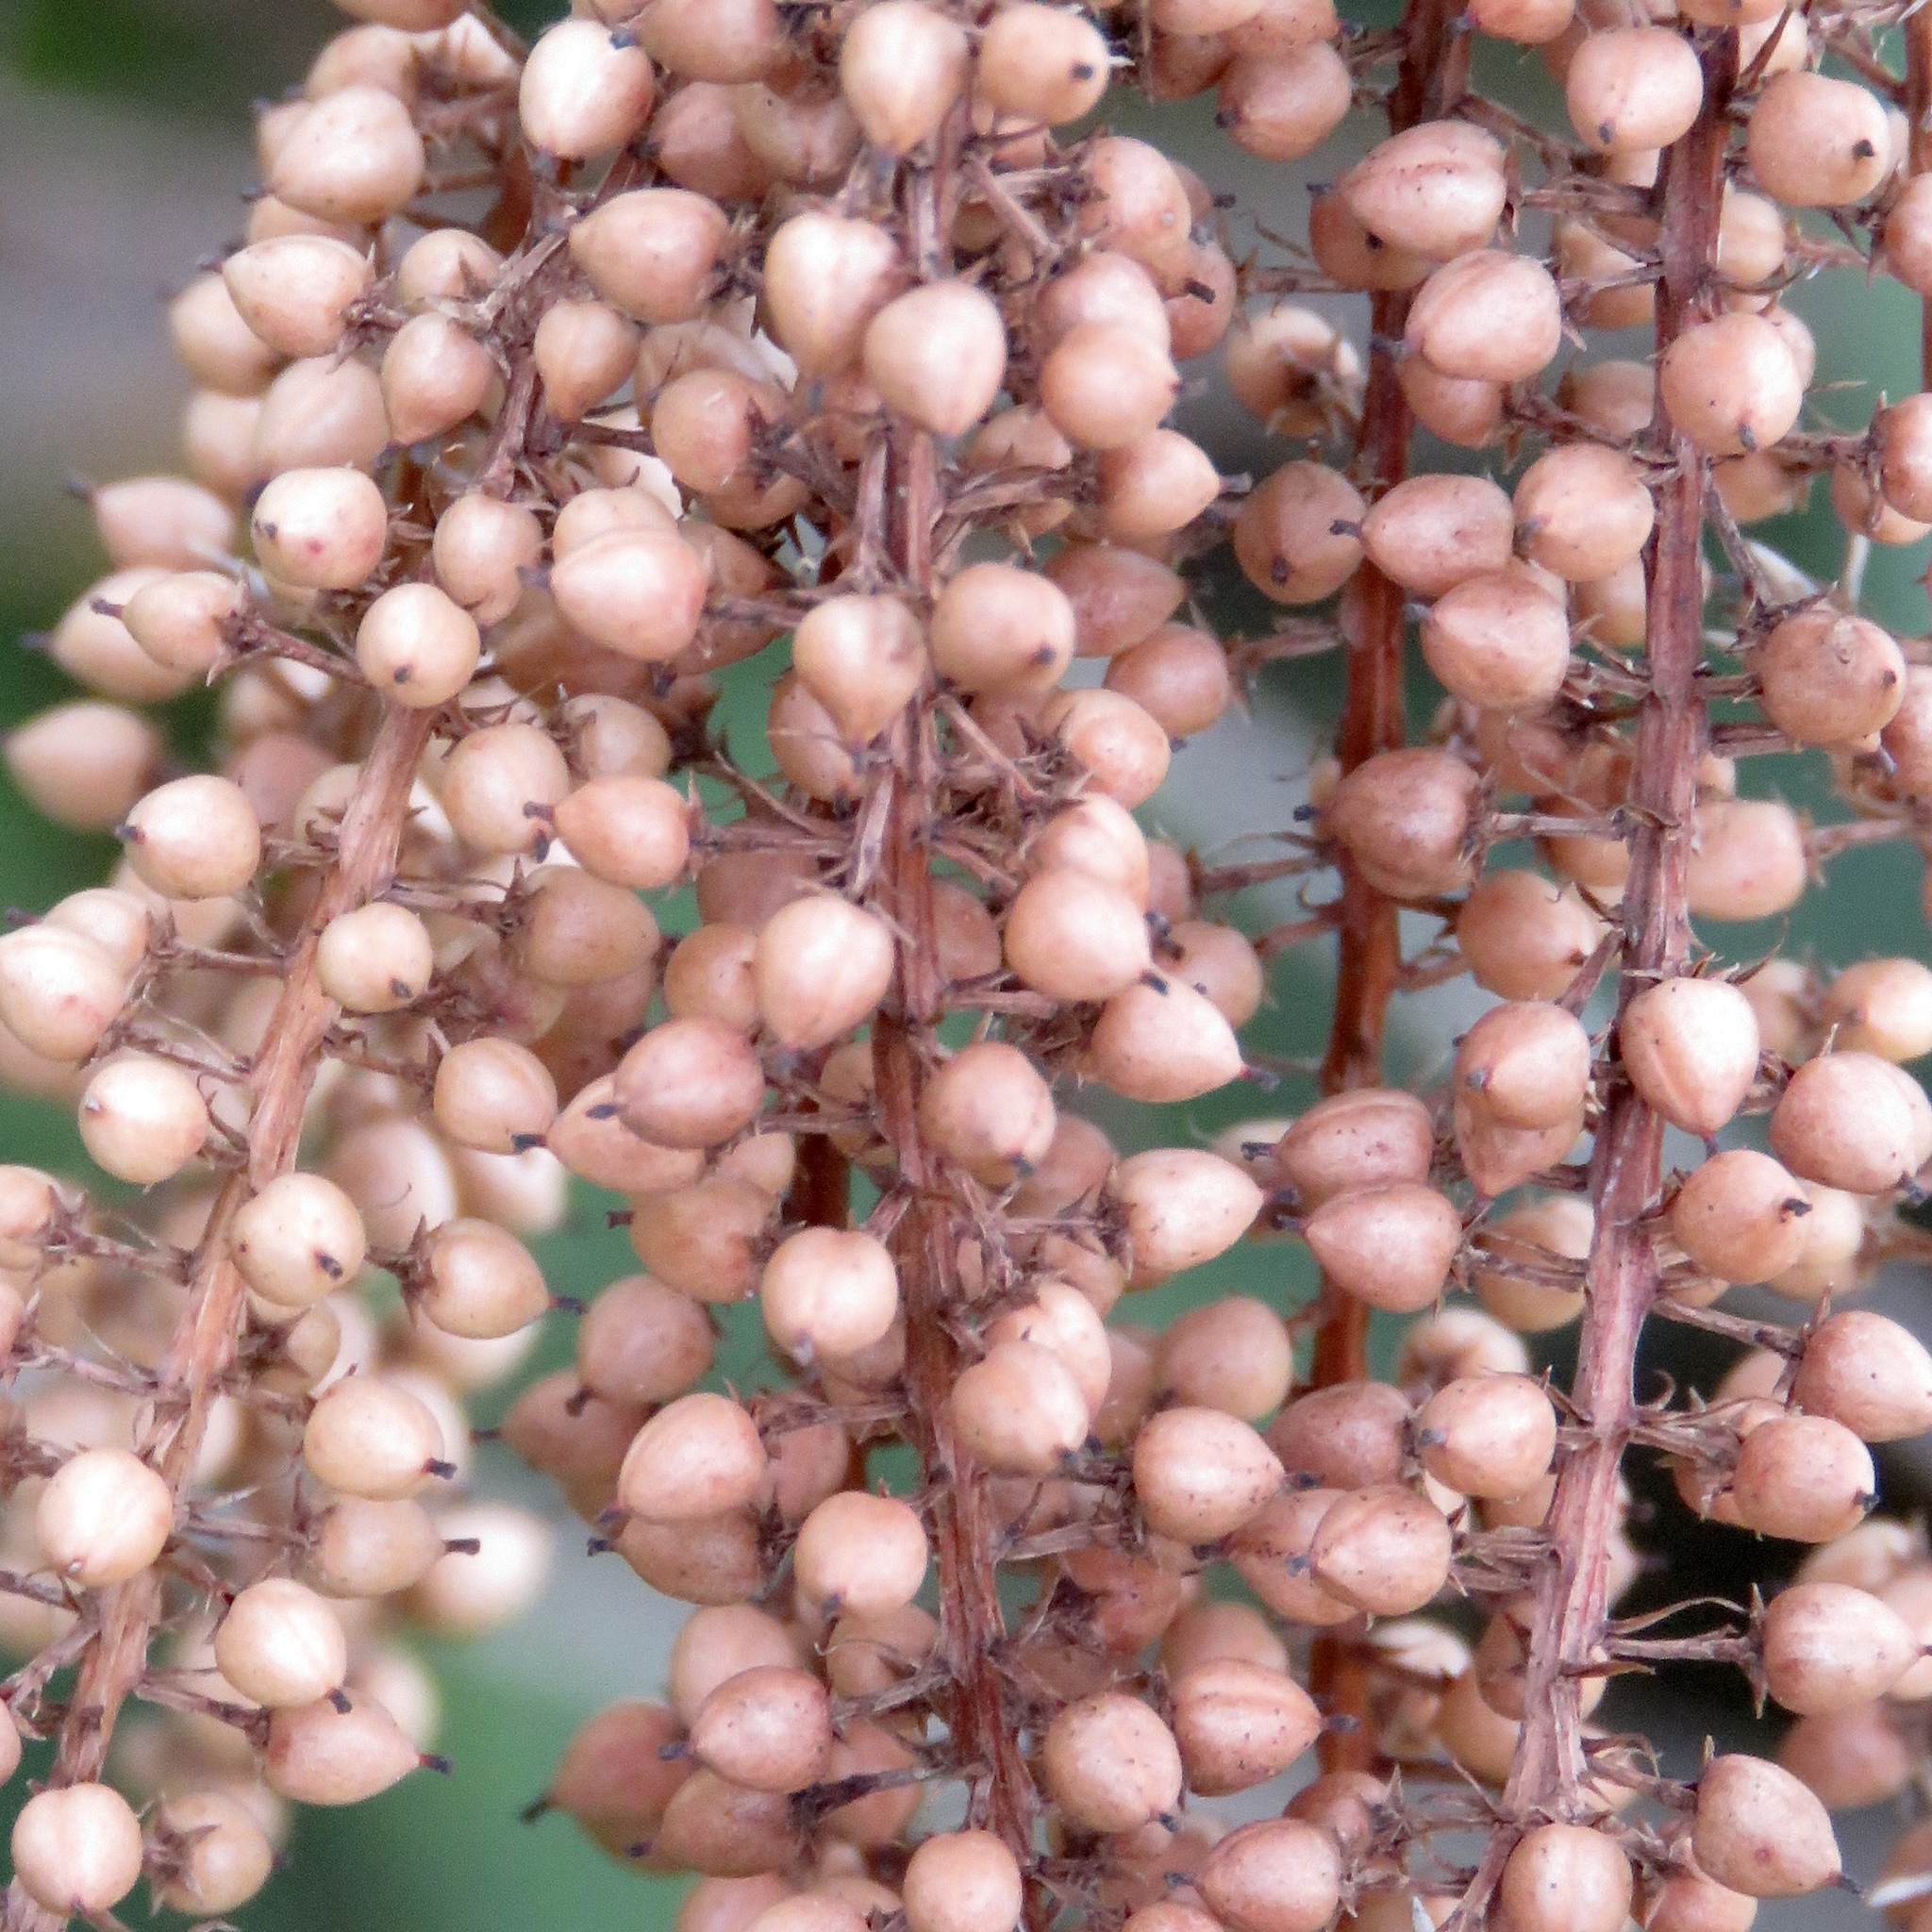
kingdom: Plantae
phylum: Tracheophyta
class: Magnoliopsida
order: Ericales
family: Cyrillaceae
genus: Cyrilla
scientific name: Cyrilla racemiflora
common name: Black titi
